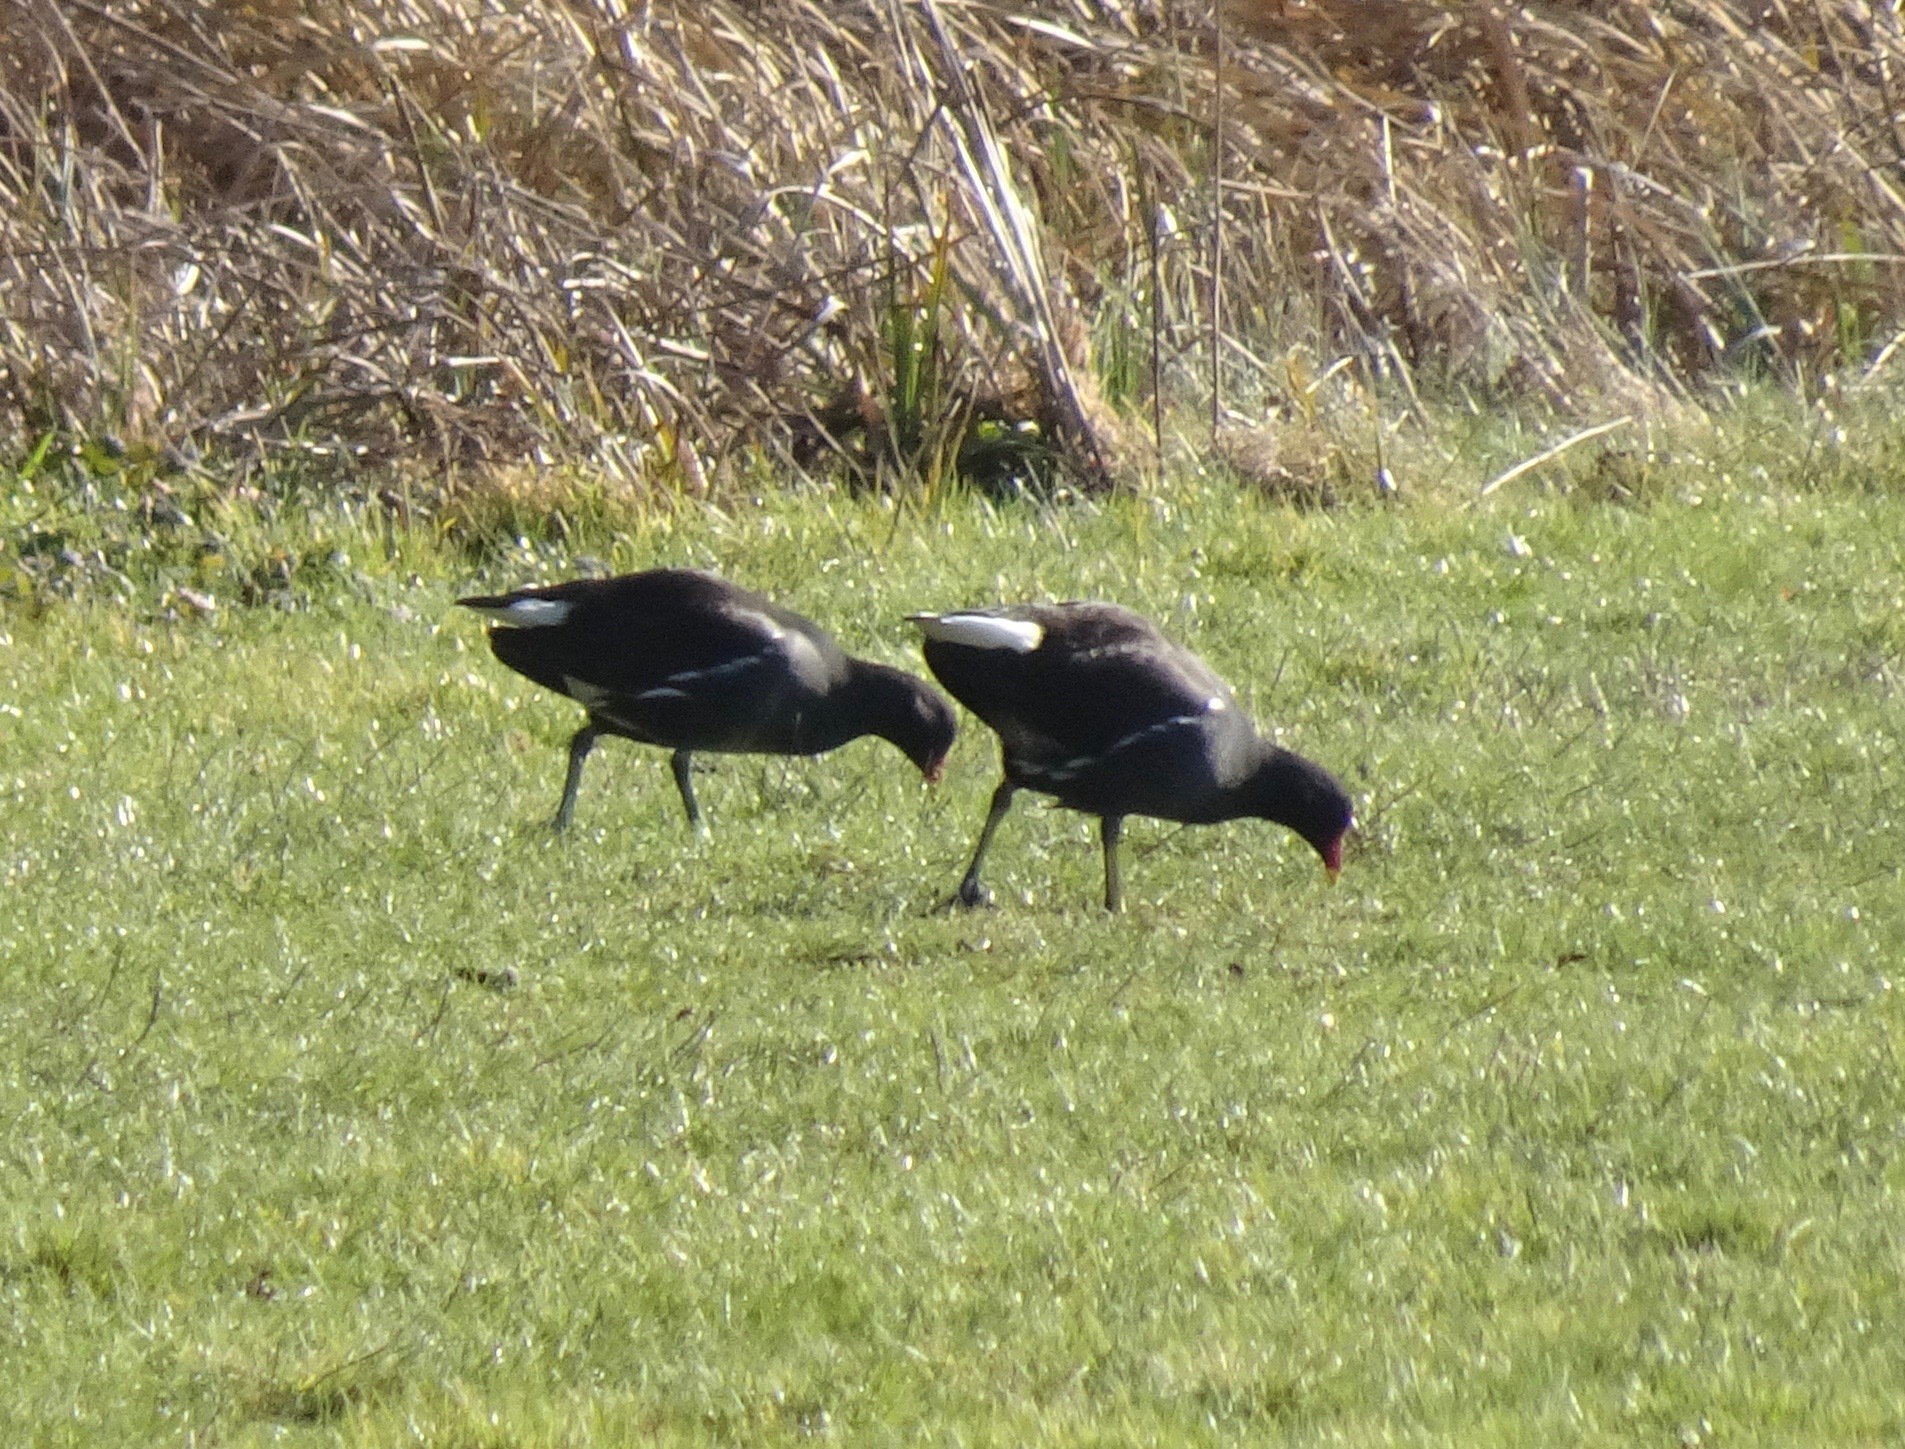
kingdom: Animalia
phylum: Chordata
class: Aves
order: Gruiformes
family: Rallidae
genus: Gallinula
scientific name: Gallinula chloropus
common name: Common moorhen
